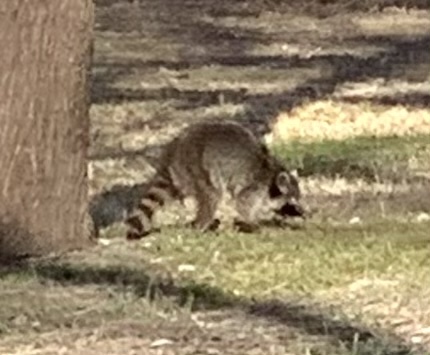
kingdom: Animalia
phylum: Chordata
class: Mammalia
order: Carnivora
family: Procyonidae
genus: Procyon
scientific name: Procyon lotor
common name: Raccoon
